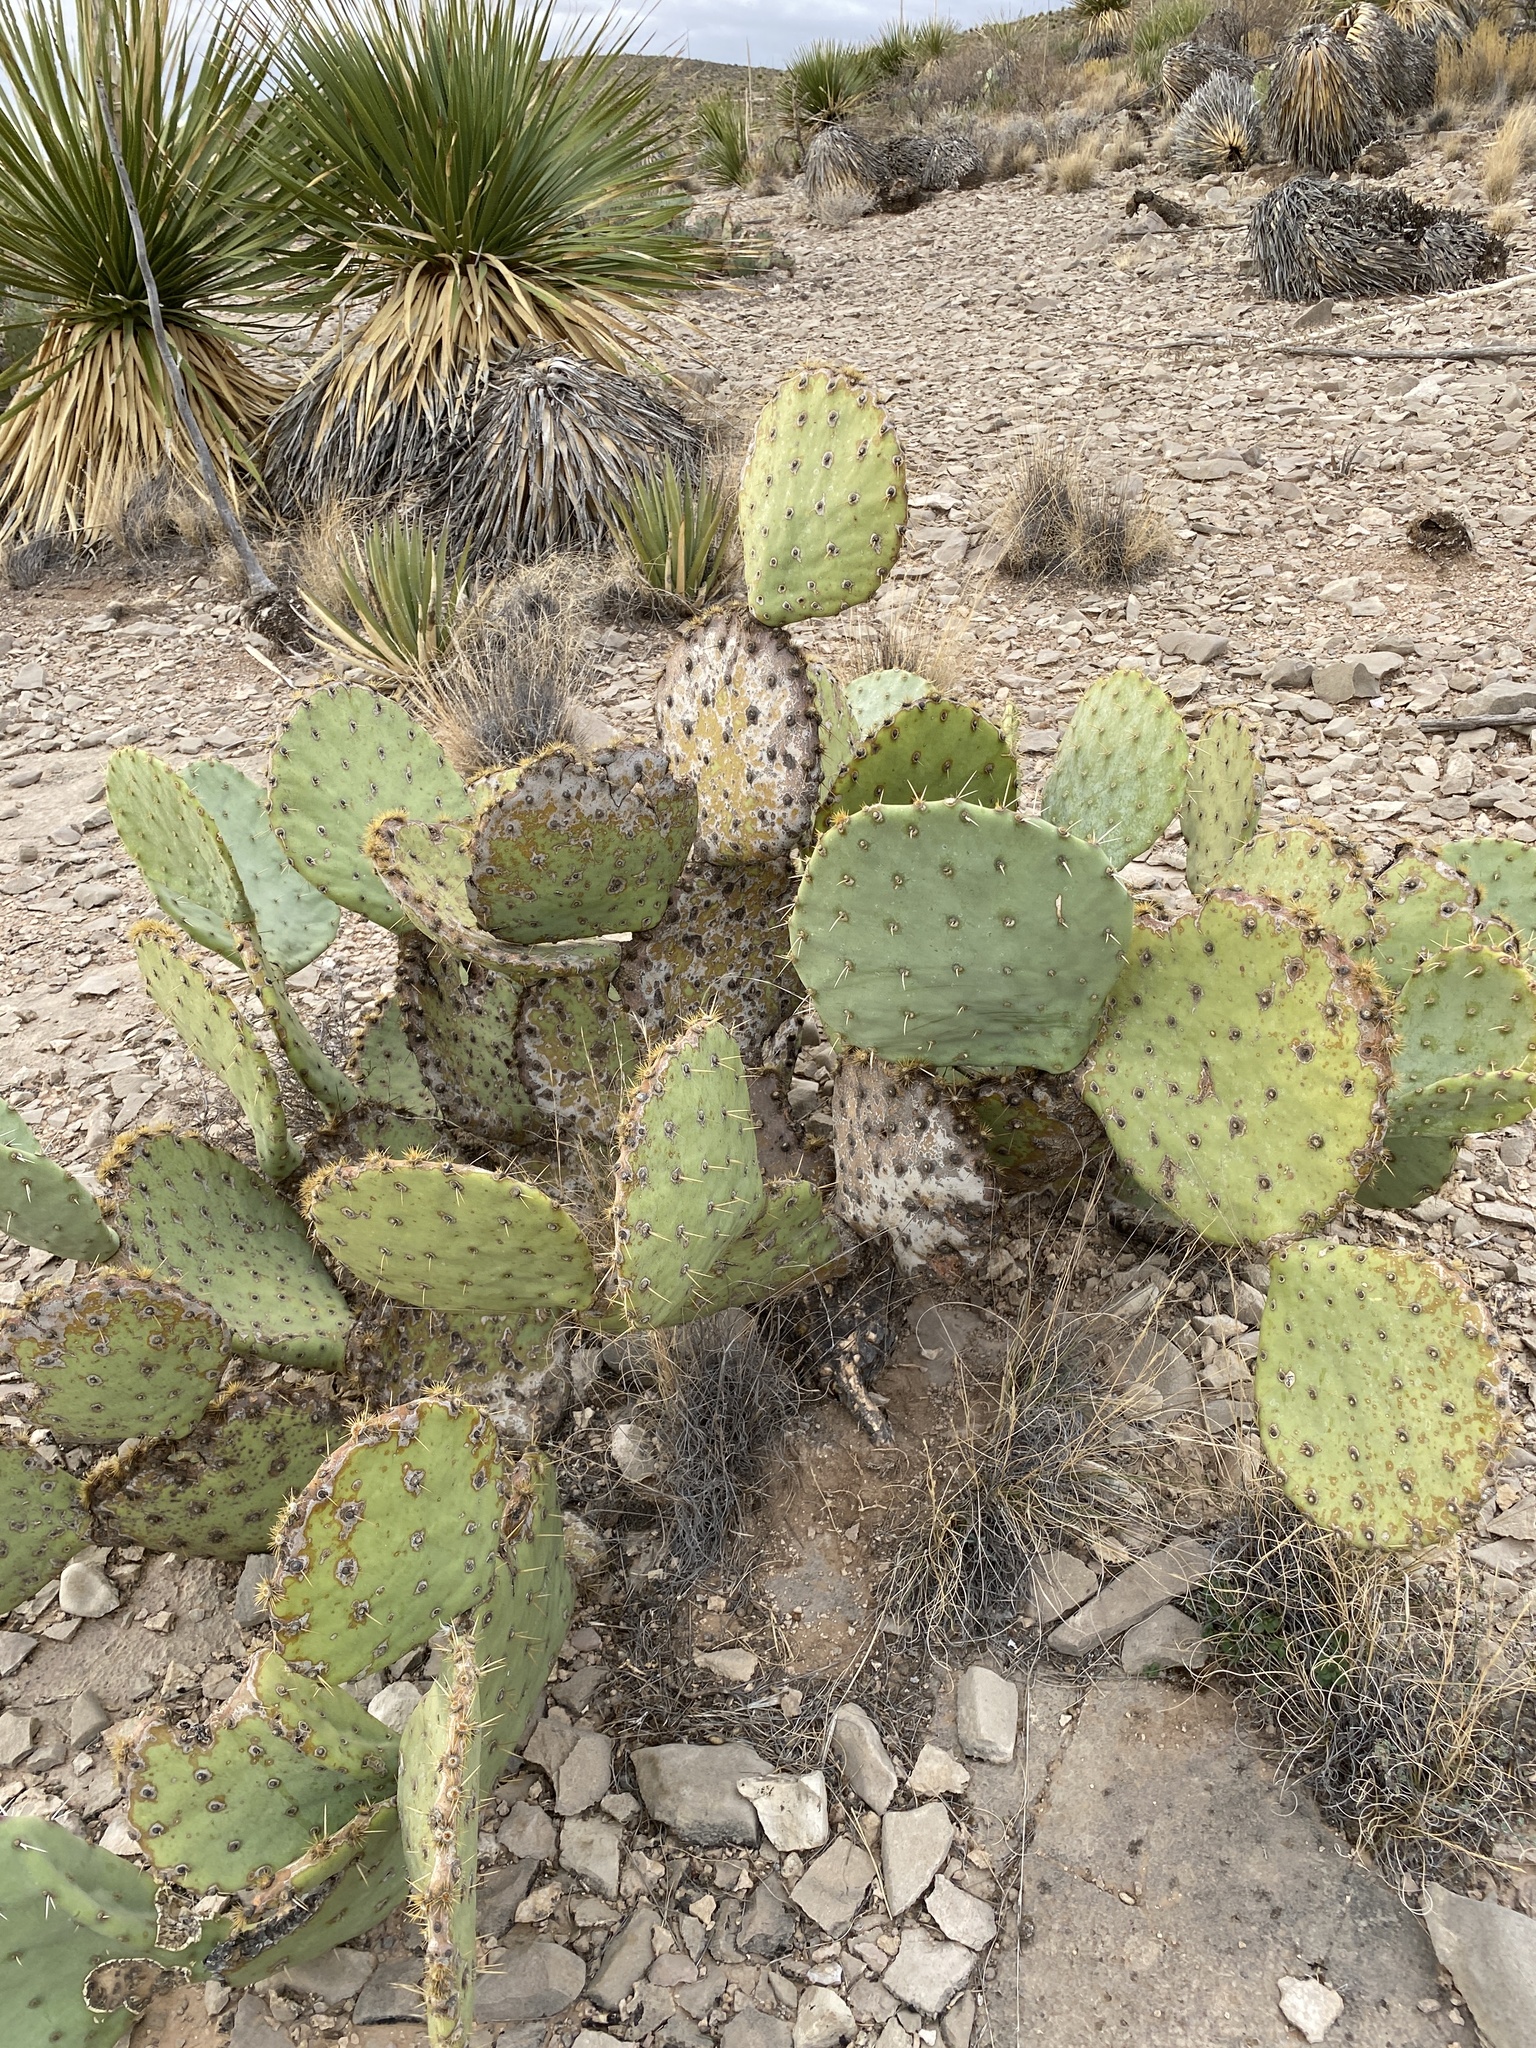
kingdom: Plantae
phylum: Tracheophyta
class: Magnoliopsida
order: Caryophyllales
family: Cactaceae
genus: Opuntia
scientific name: Opuntia engelmannii
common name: Cactus-apple
